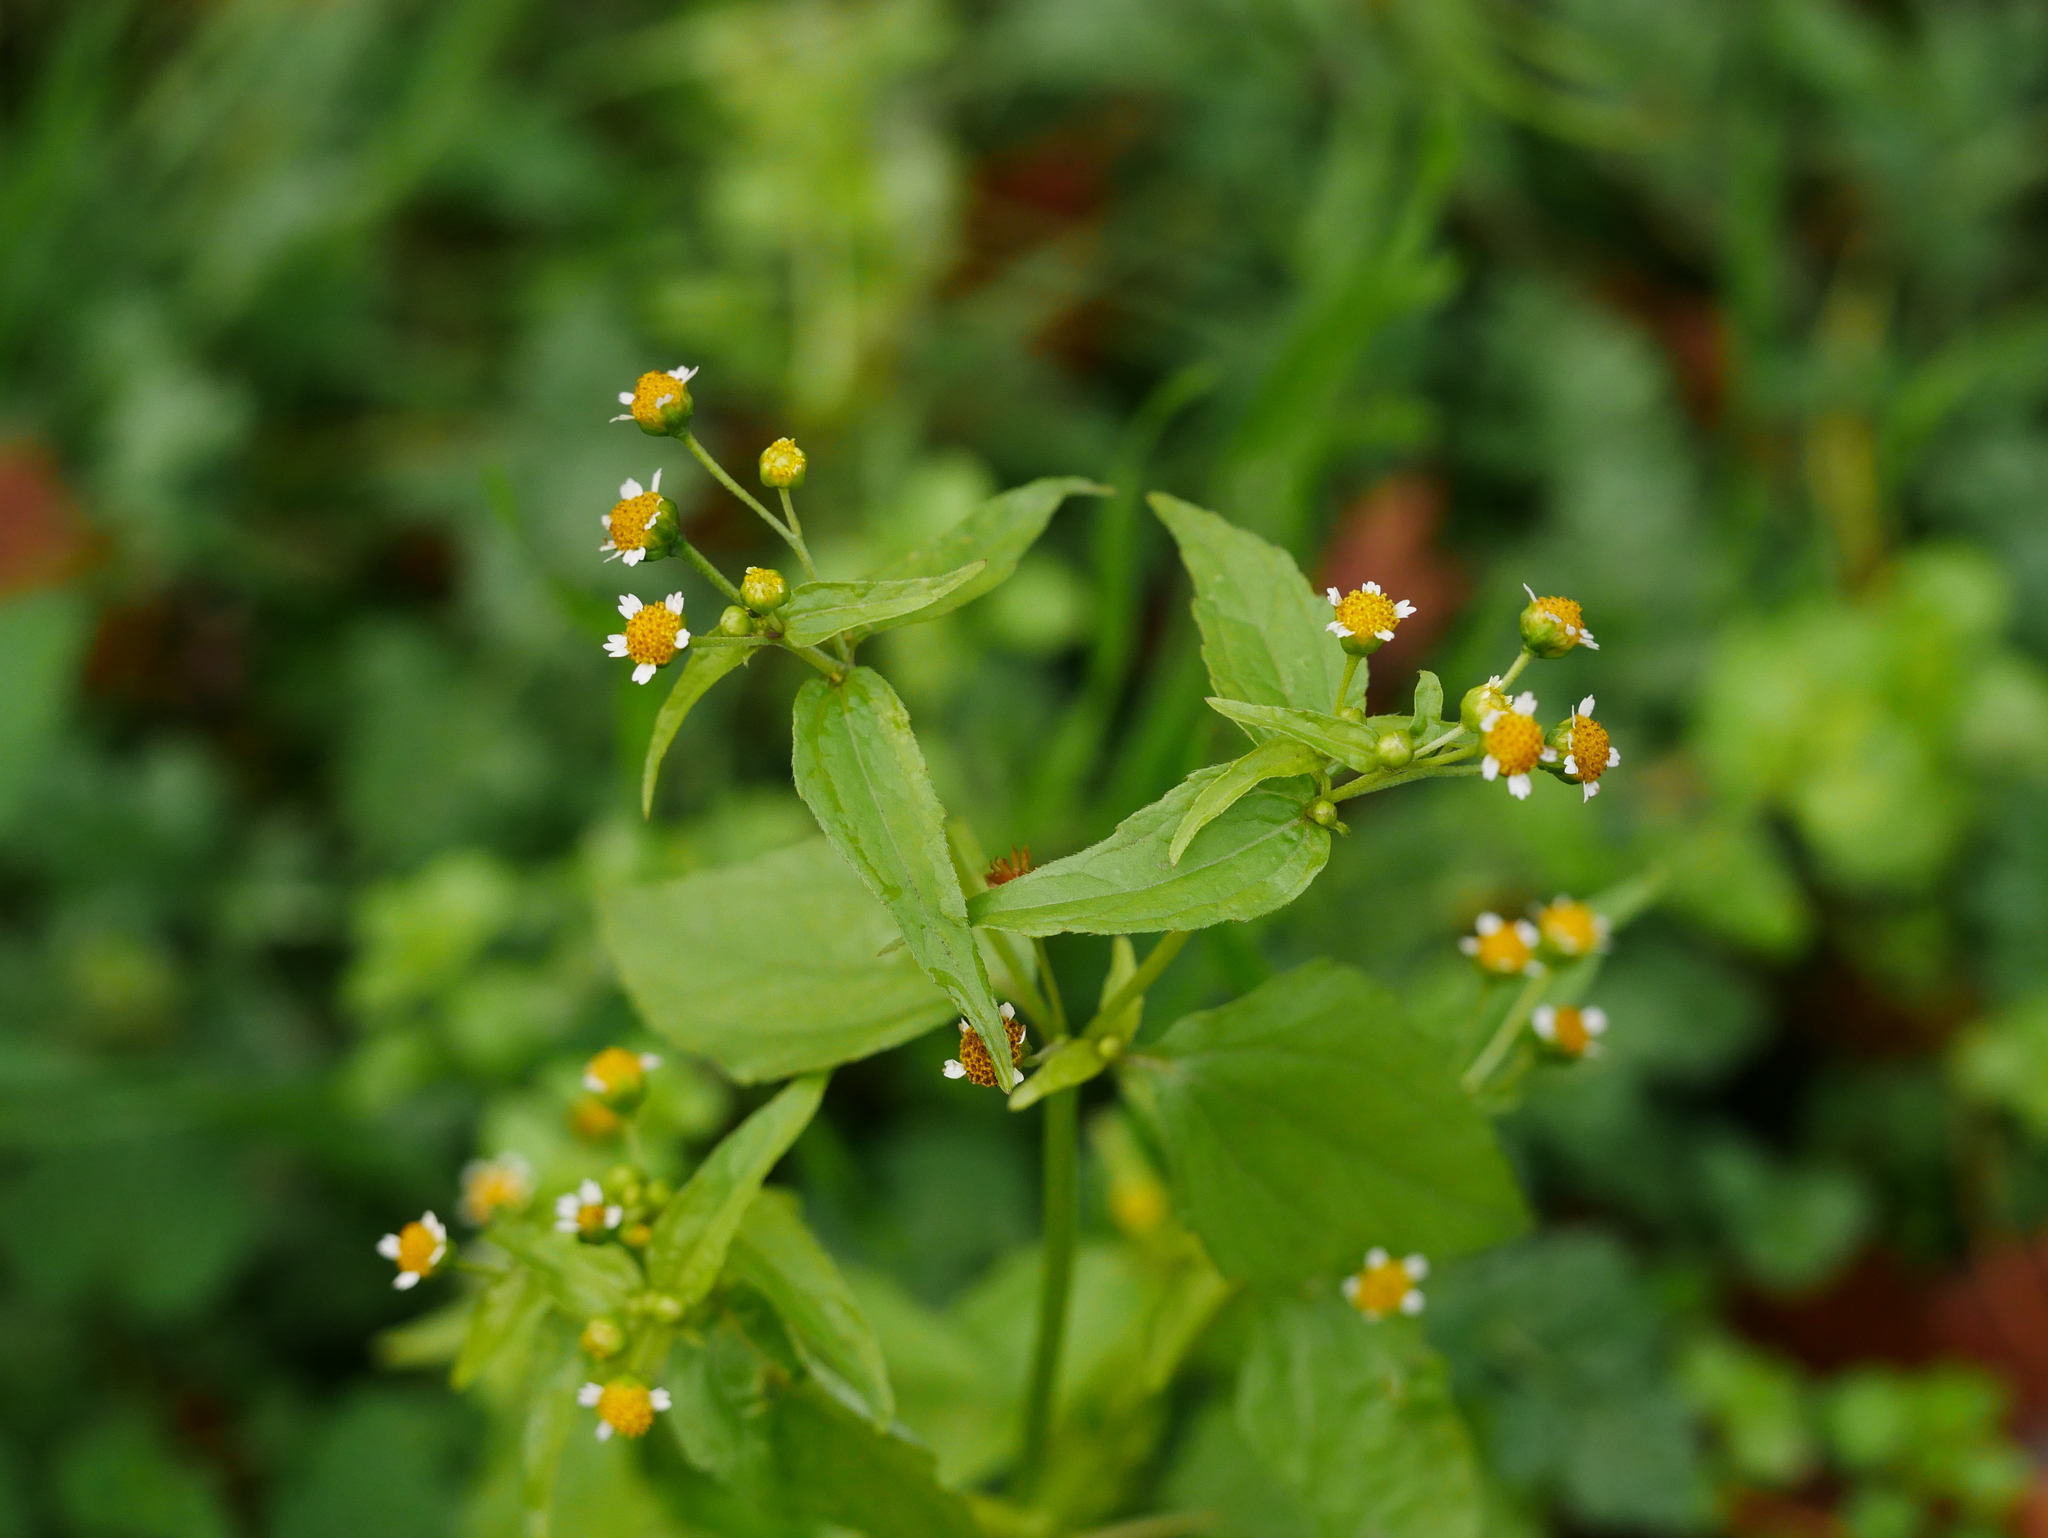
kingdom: Plantae
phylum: Tracheophyta
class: Magnoliopsida
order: Asterales
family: Asteraceae
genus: Galinsoga
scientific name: Galinsoga parviflora
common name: Gallant soldier
